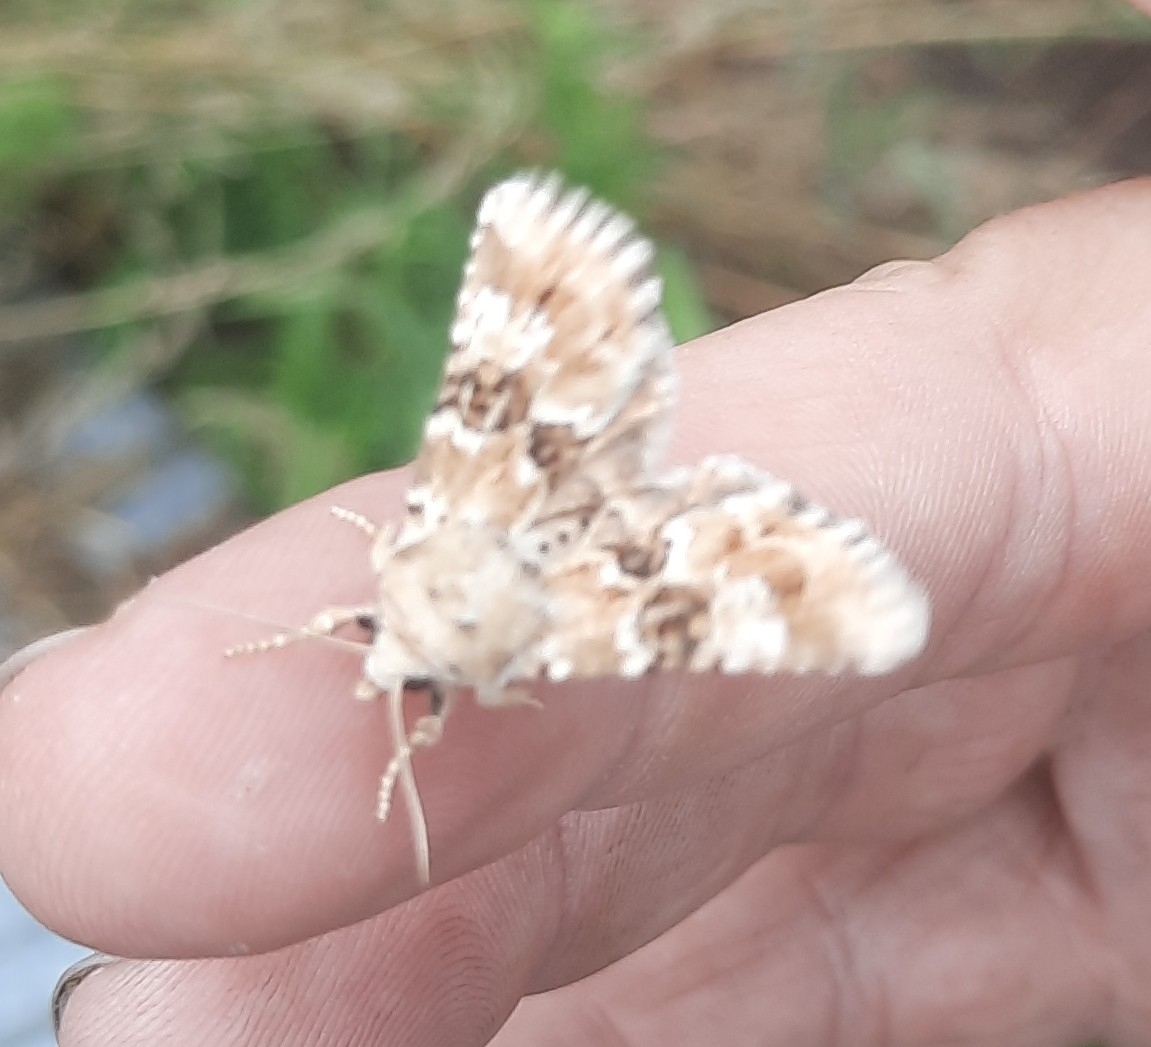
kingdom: Animalia
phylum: Arthropoda
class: Insecta
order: Lepidoptera
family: Noctuidae
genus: Eremobia
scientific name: Eremobia ochroleuca
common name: Dusky sallow
